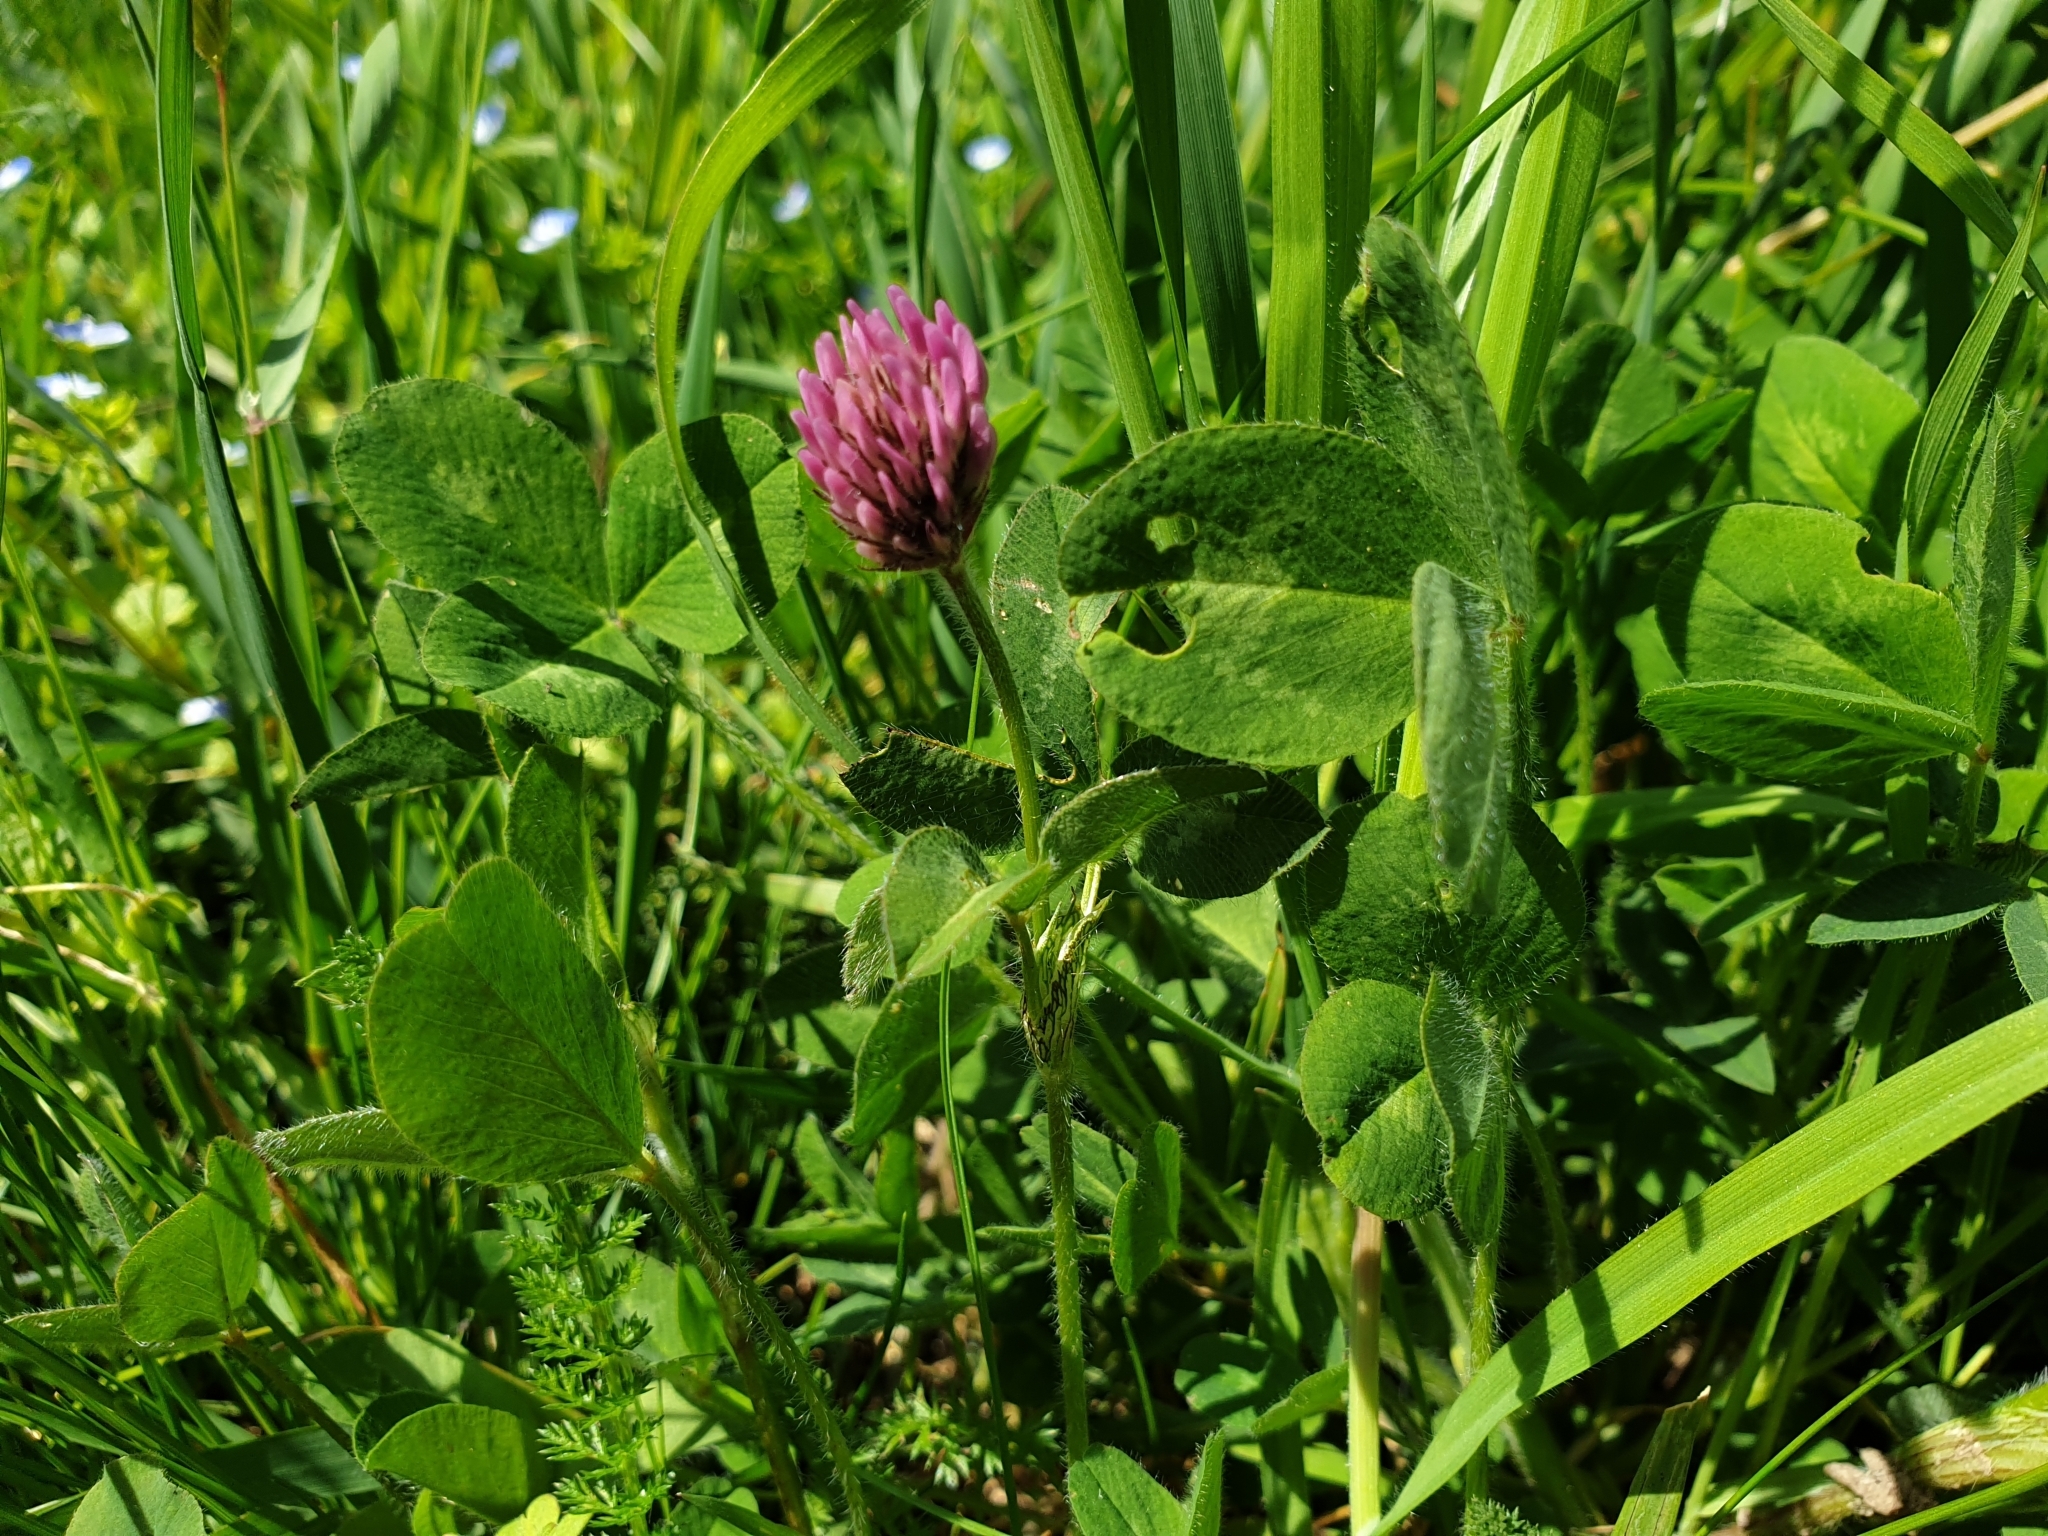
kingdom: Plantae
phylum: Tracheophyta
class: Magnoliopsida
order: Fabales
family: Fabaceae
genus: Trifolium
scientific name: Trifolium pratense
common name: Red clover
